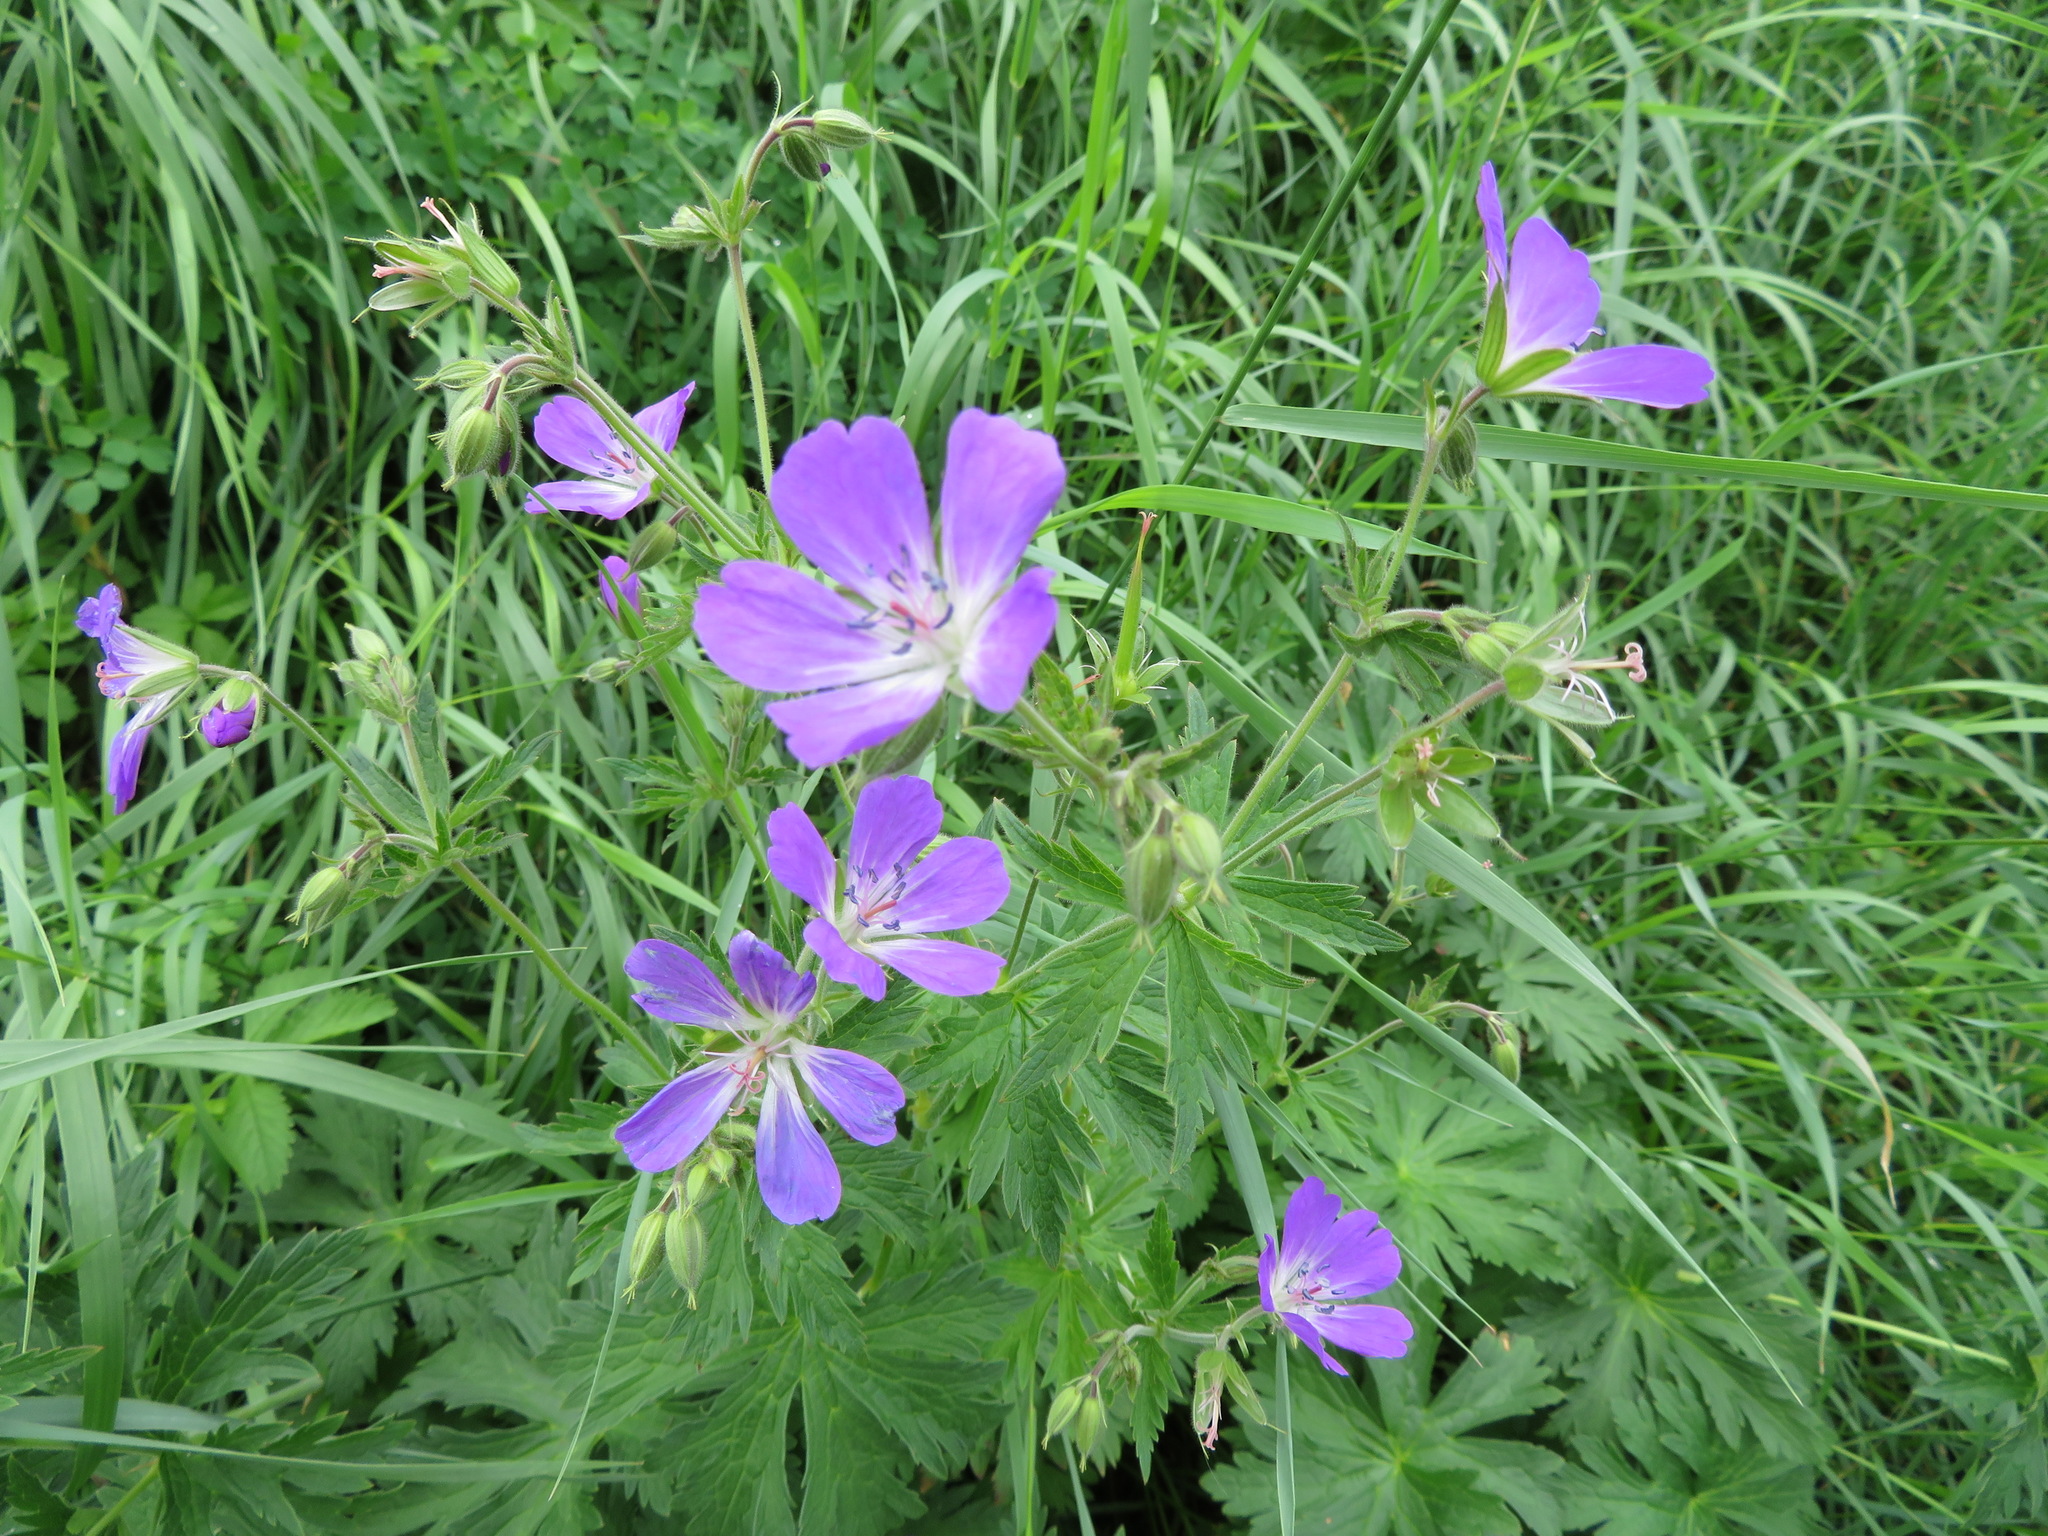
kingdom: Plantae
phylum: Tracheophyta
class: Magnoliopsida
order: Geraniales
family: Geraniaceae
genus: Geranium
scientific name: Geranium sylvaticum
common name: Wood crane's-bill
